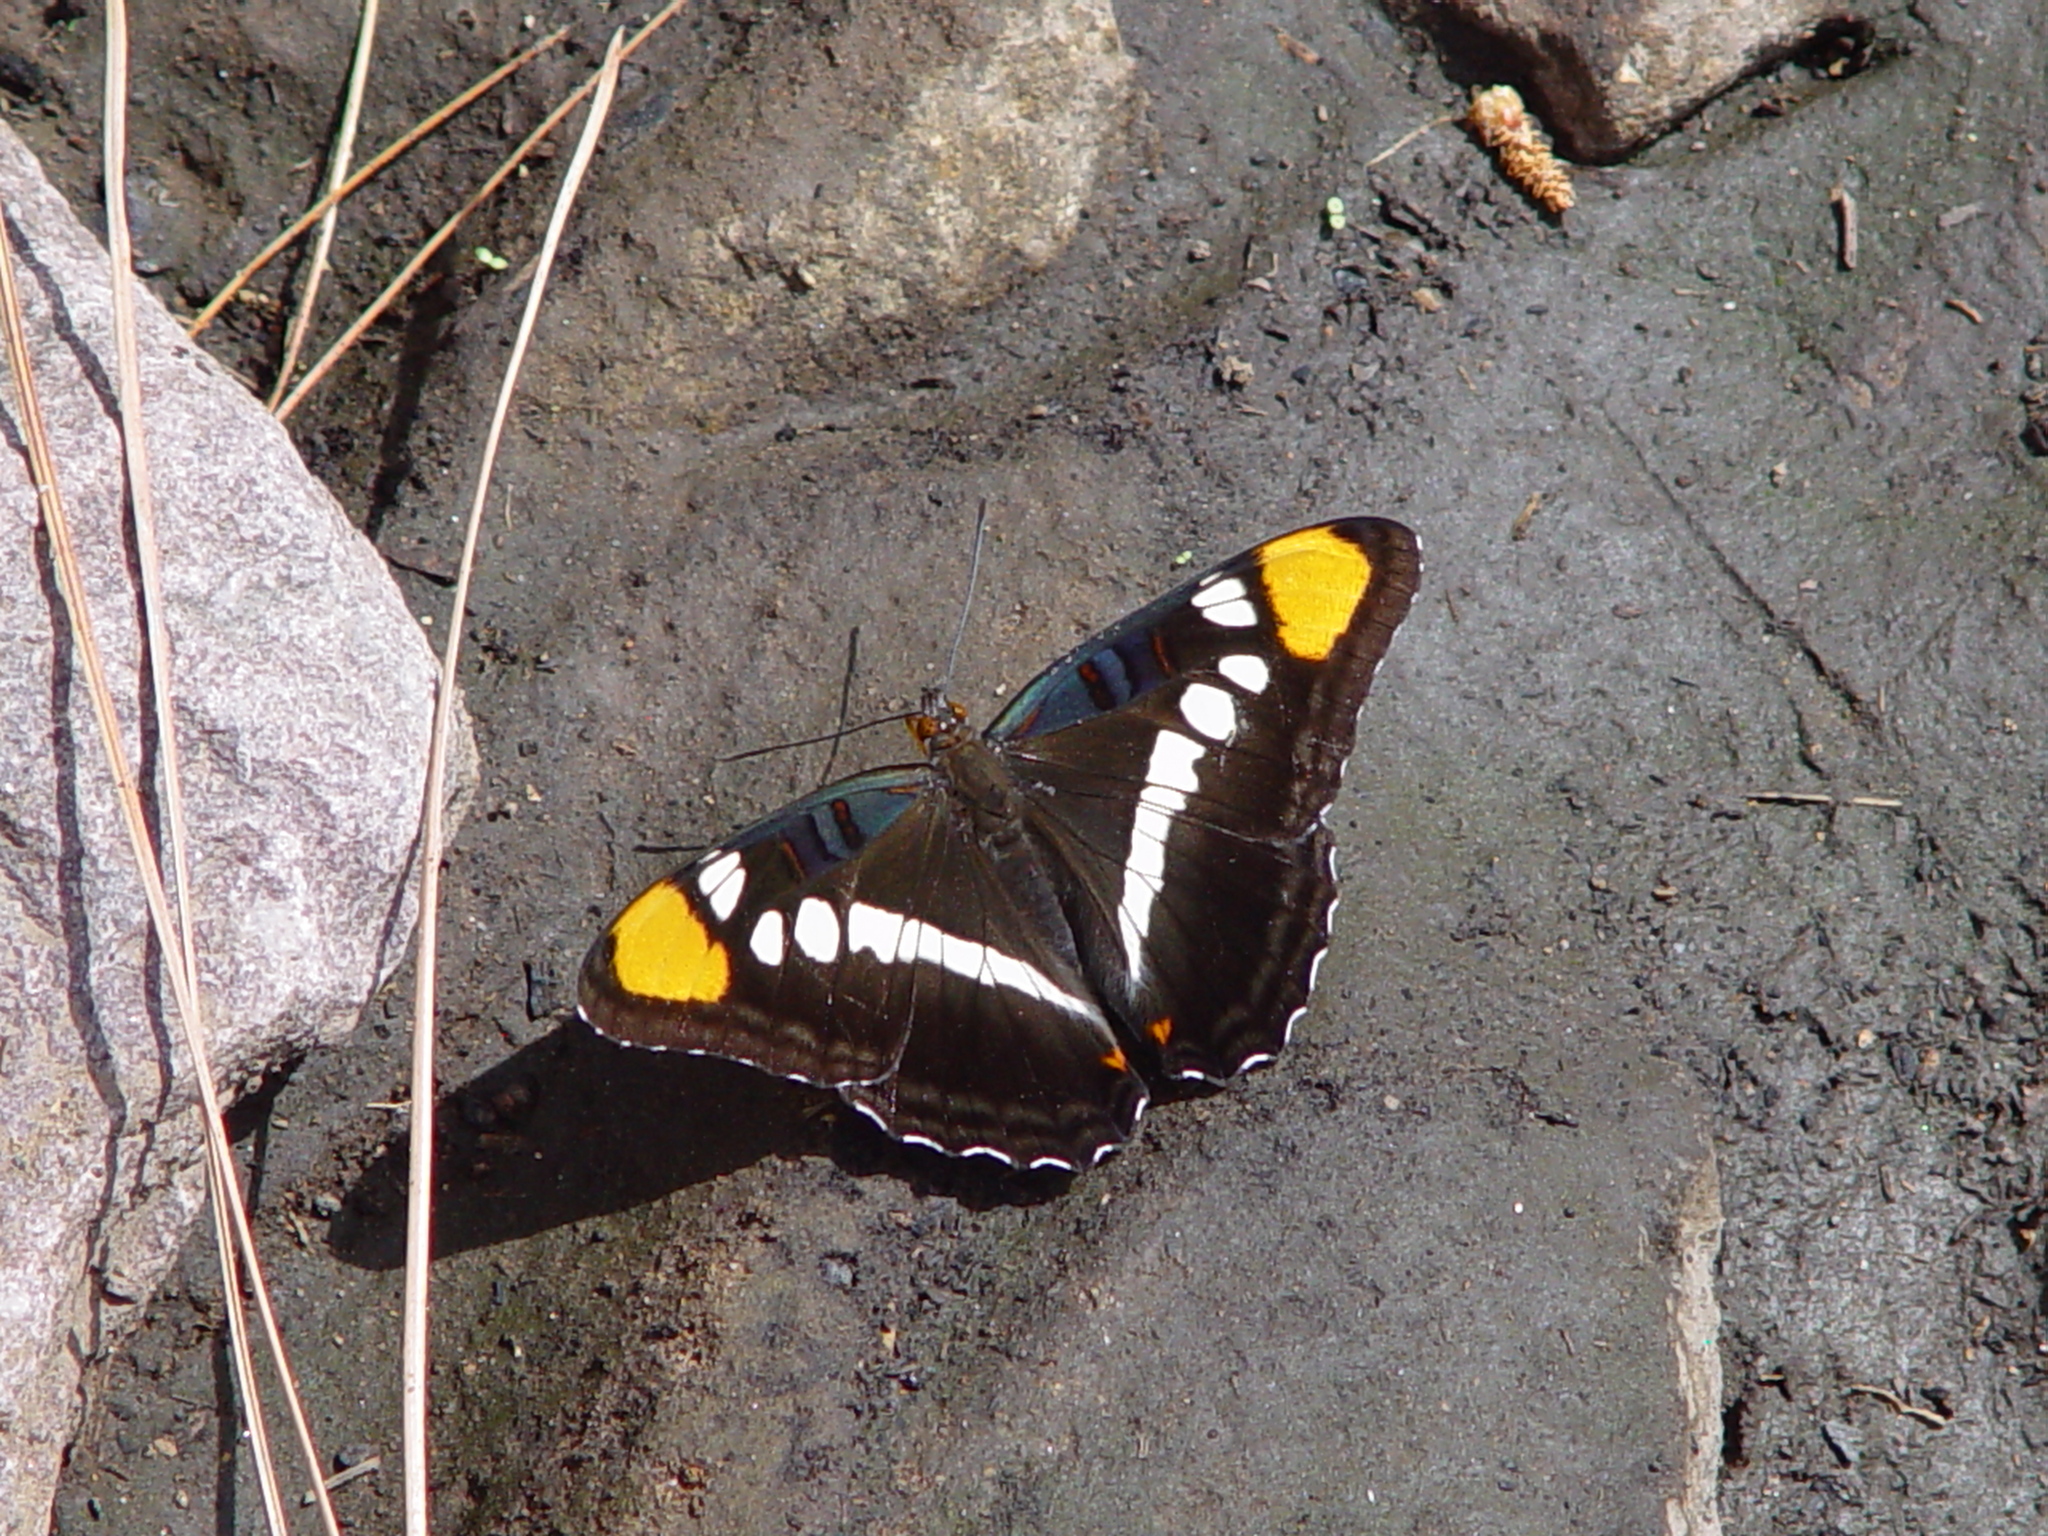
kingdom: Animalia
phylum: Arthropoda
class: Insecta
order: Lepidoptera
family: Nymphalidae
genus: Limenitis
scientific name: Limenitis bredowii
